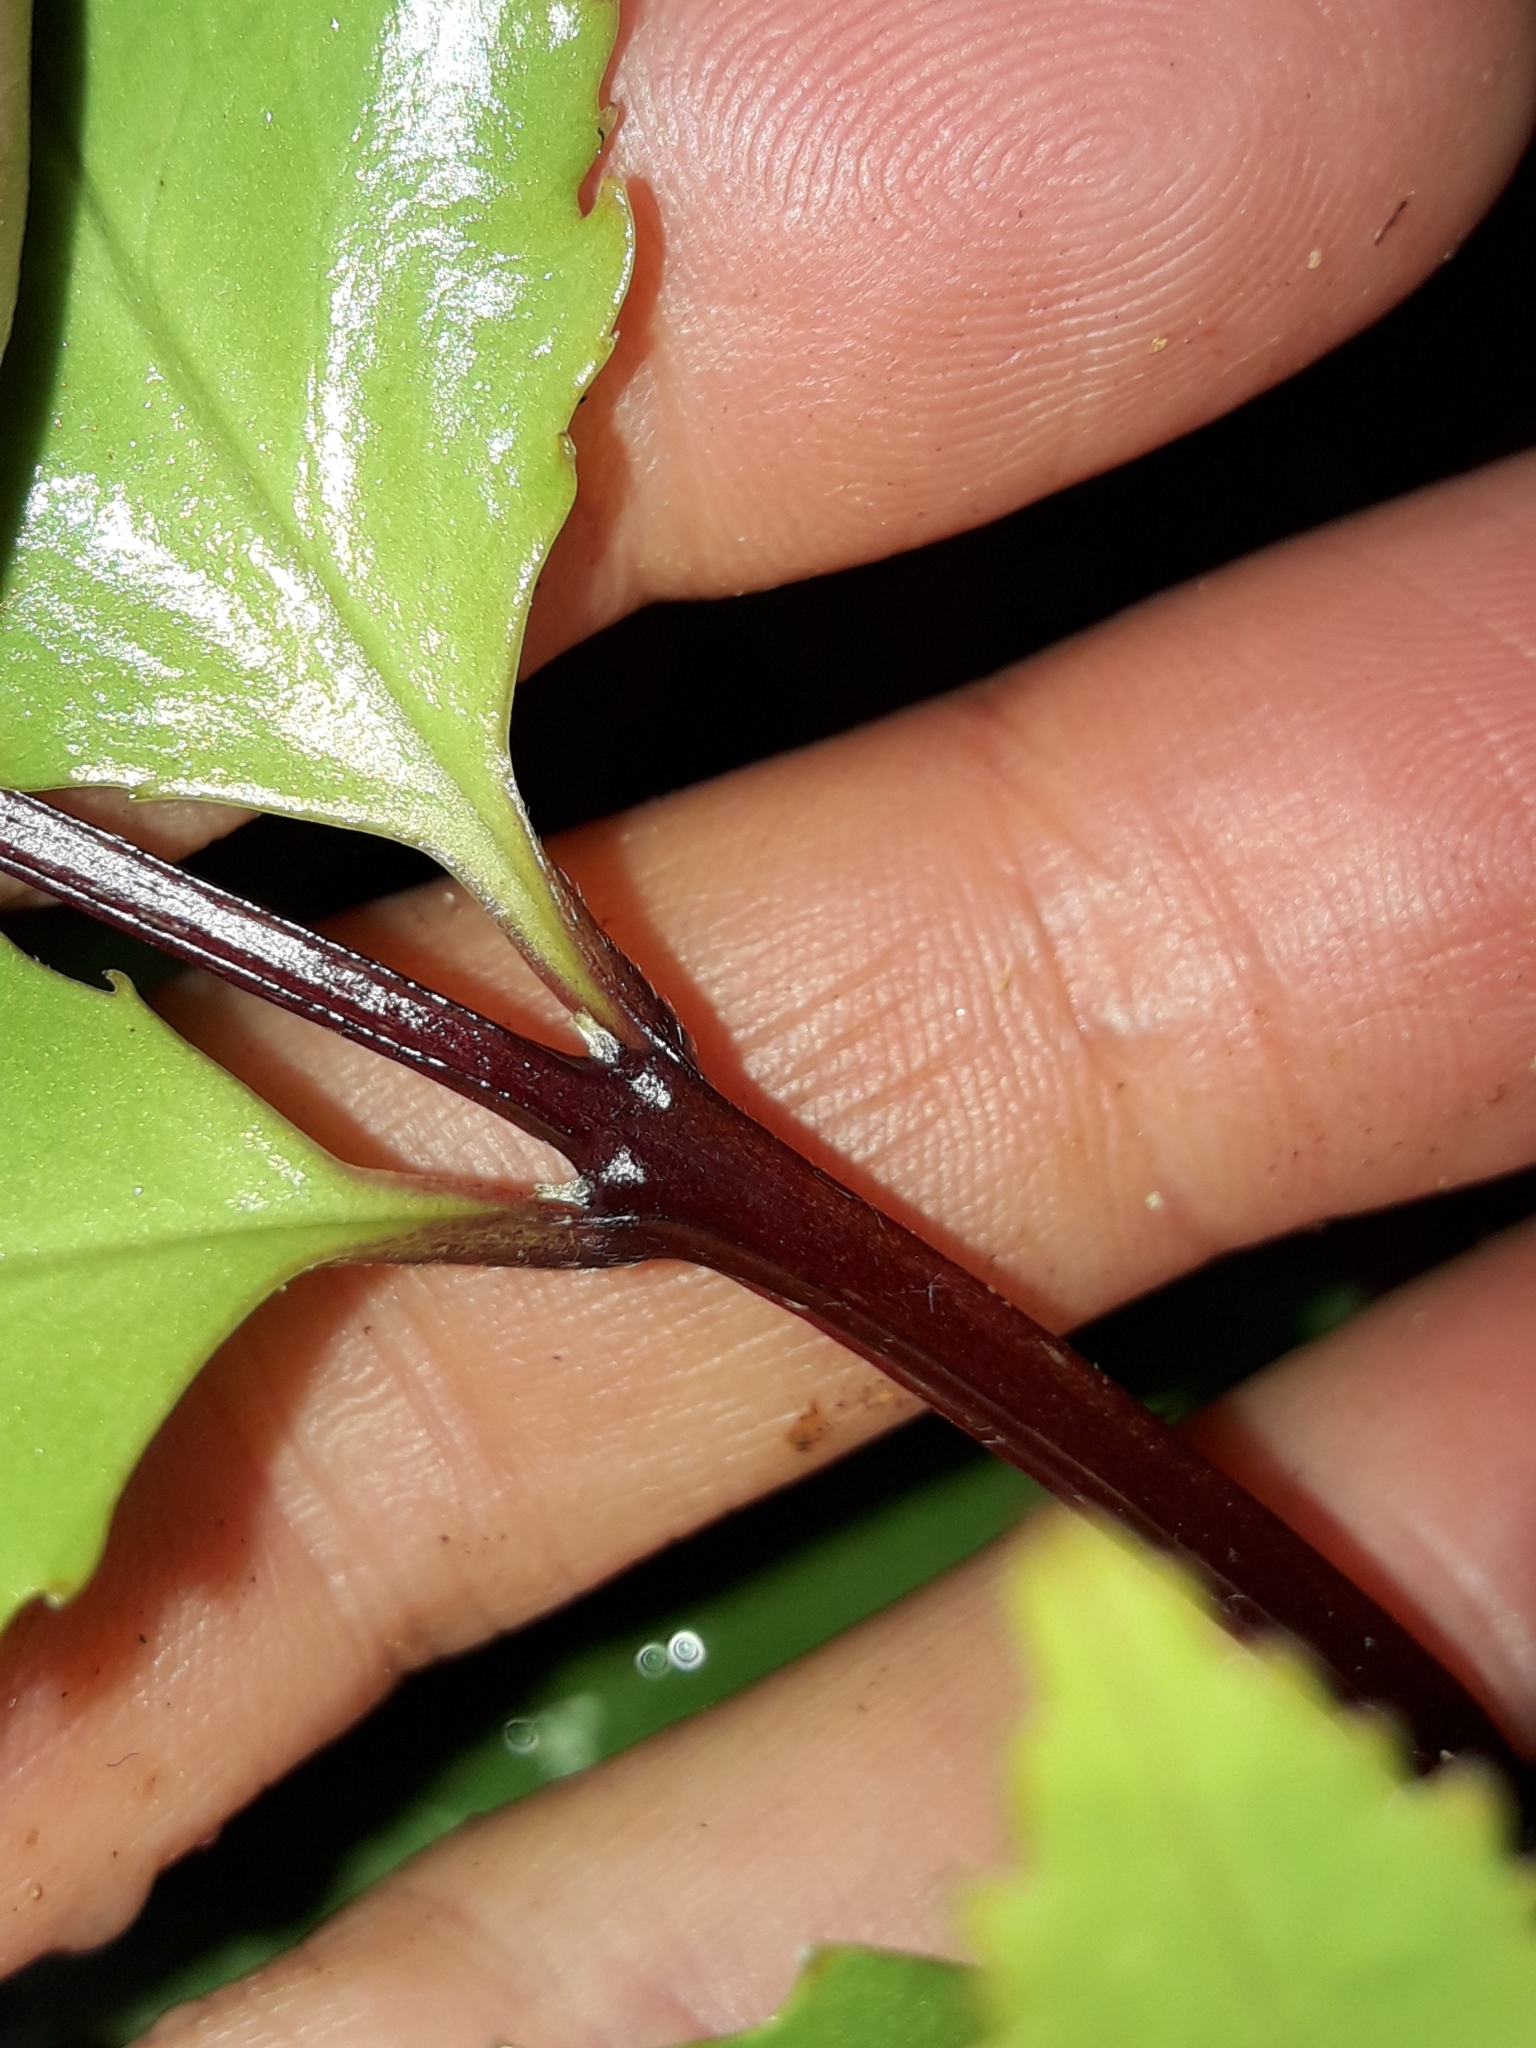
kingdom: Plantae
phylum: Tracheophyta
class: Magnoliopsida
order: Laurales
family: Atherospermataceae
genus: Laurelia
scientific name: Laurelia novae-zelandiae
